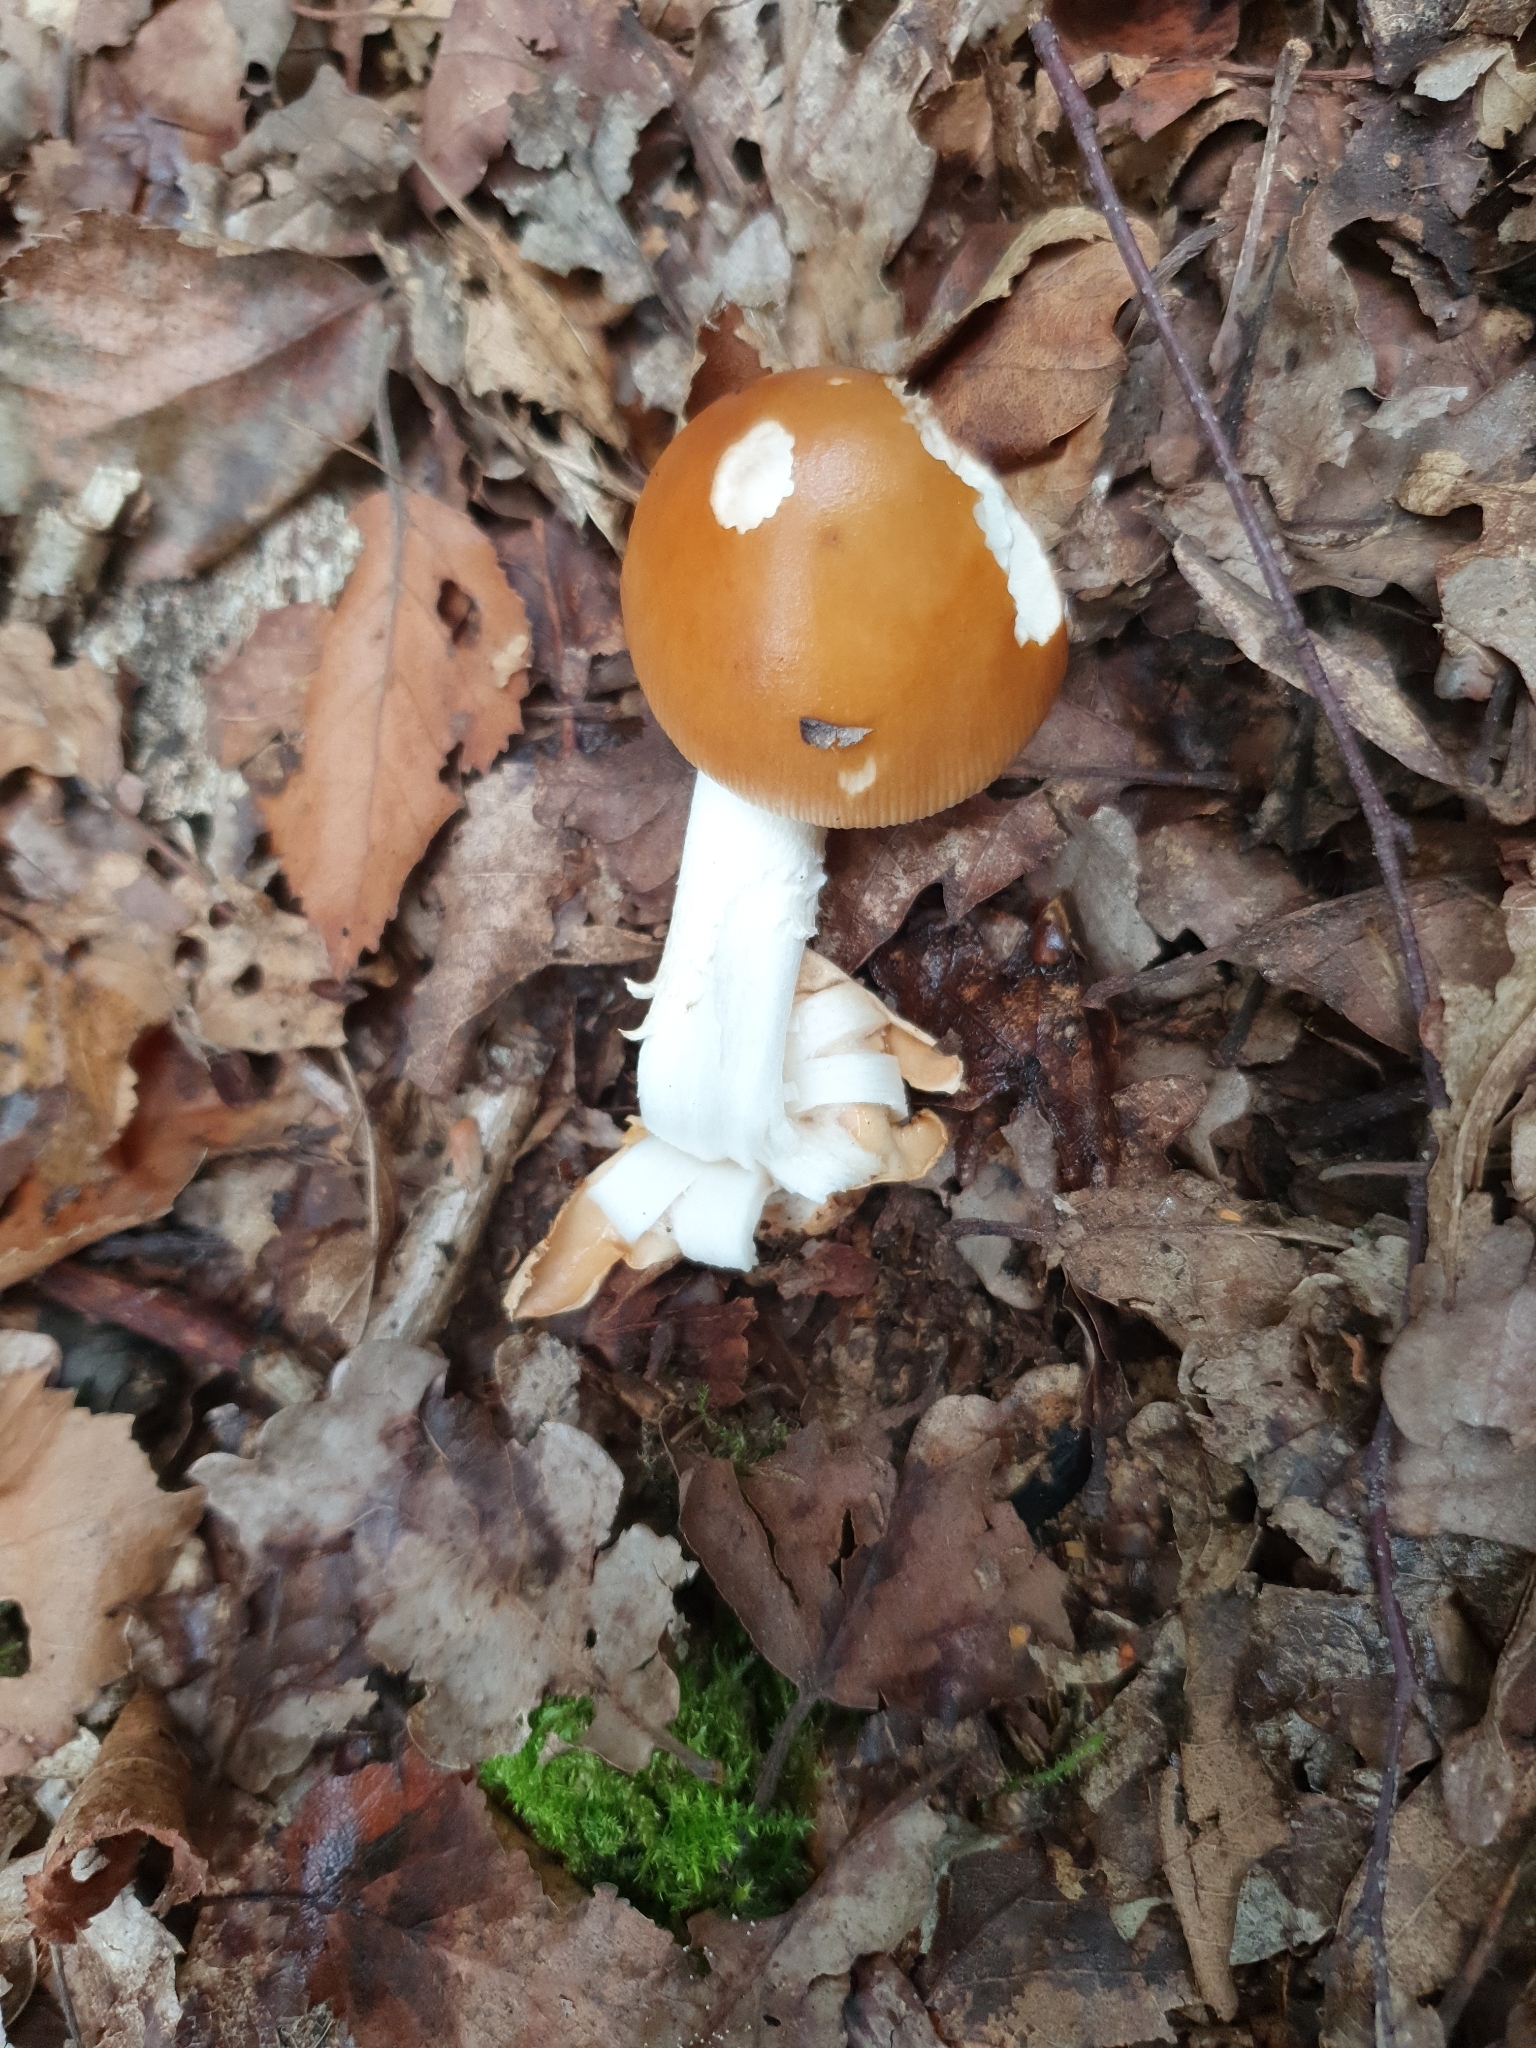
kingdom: Fungi
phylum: Basidiomycota
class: Agaricomycetes
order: Agaricales
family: Amanitaceae
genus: Amanita
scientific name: Amanita fulva
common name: Tawny grisette
